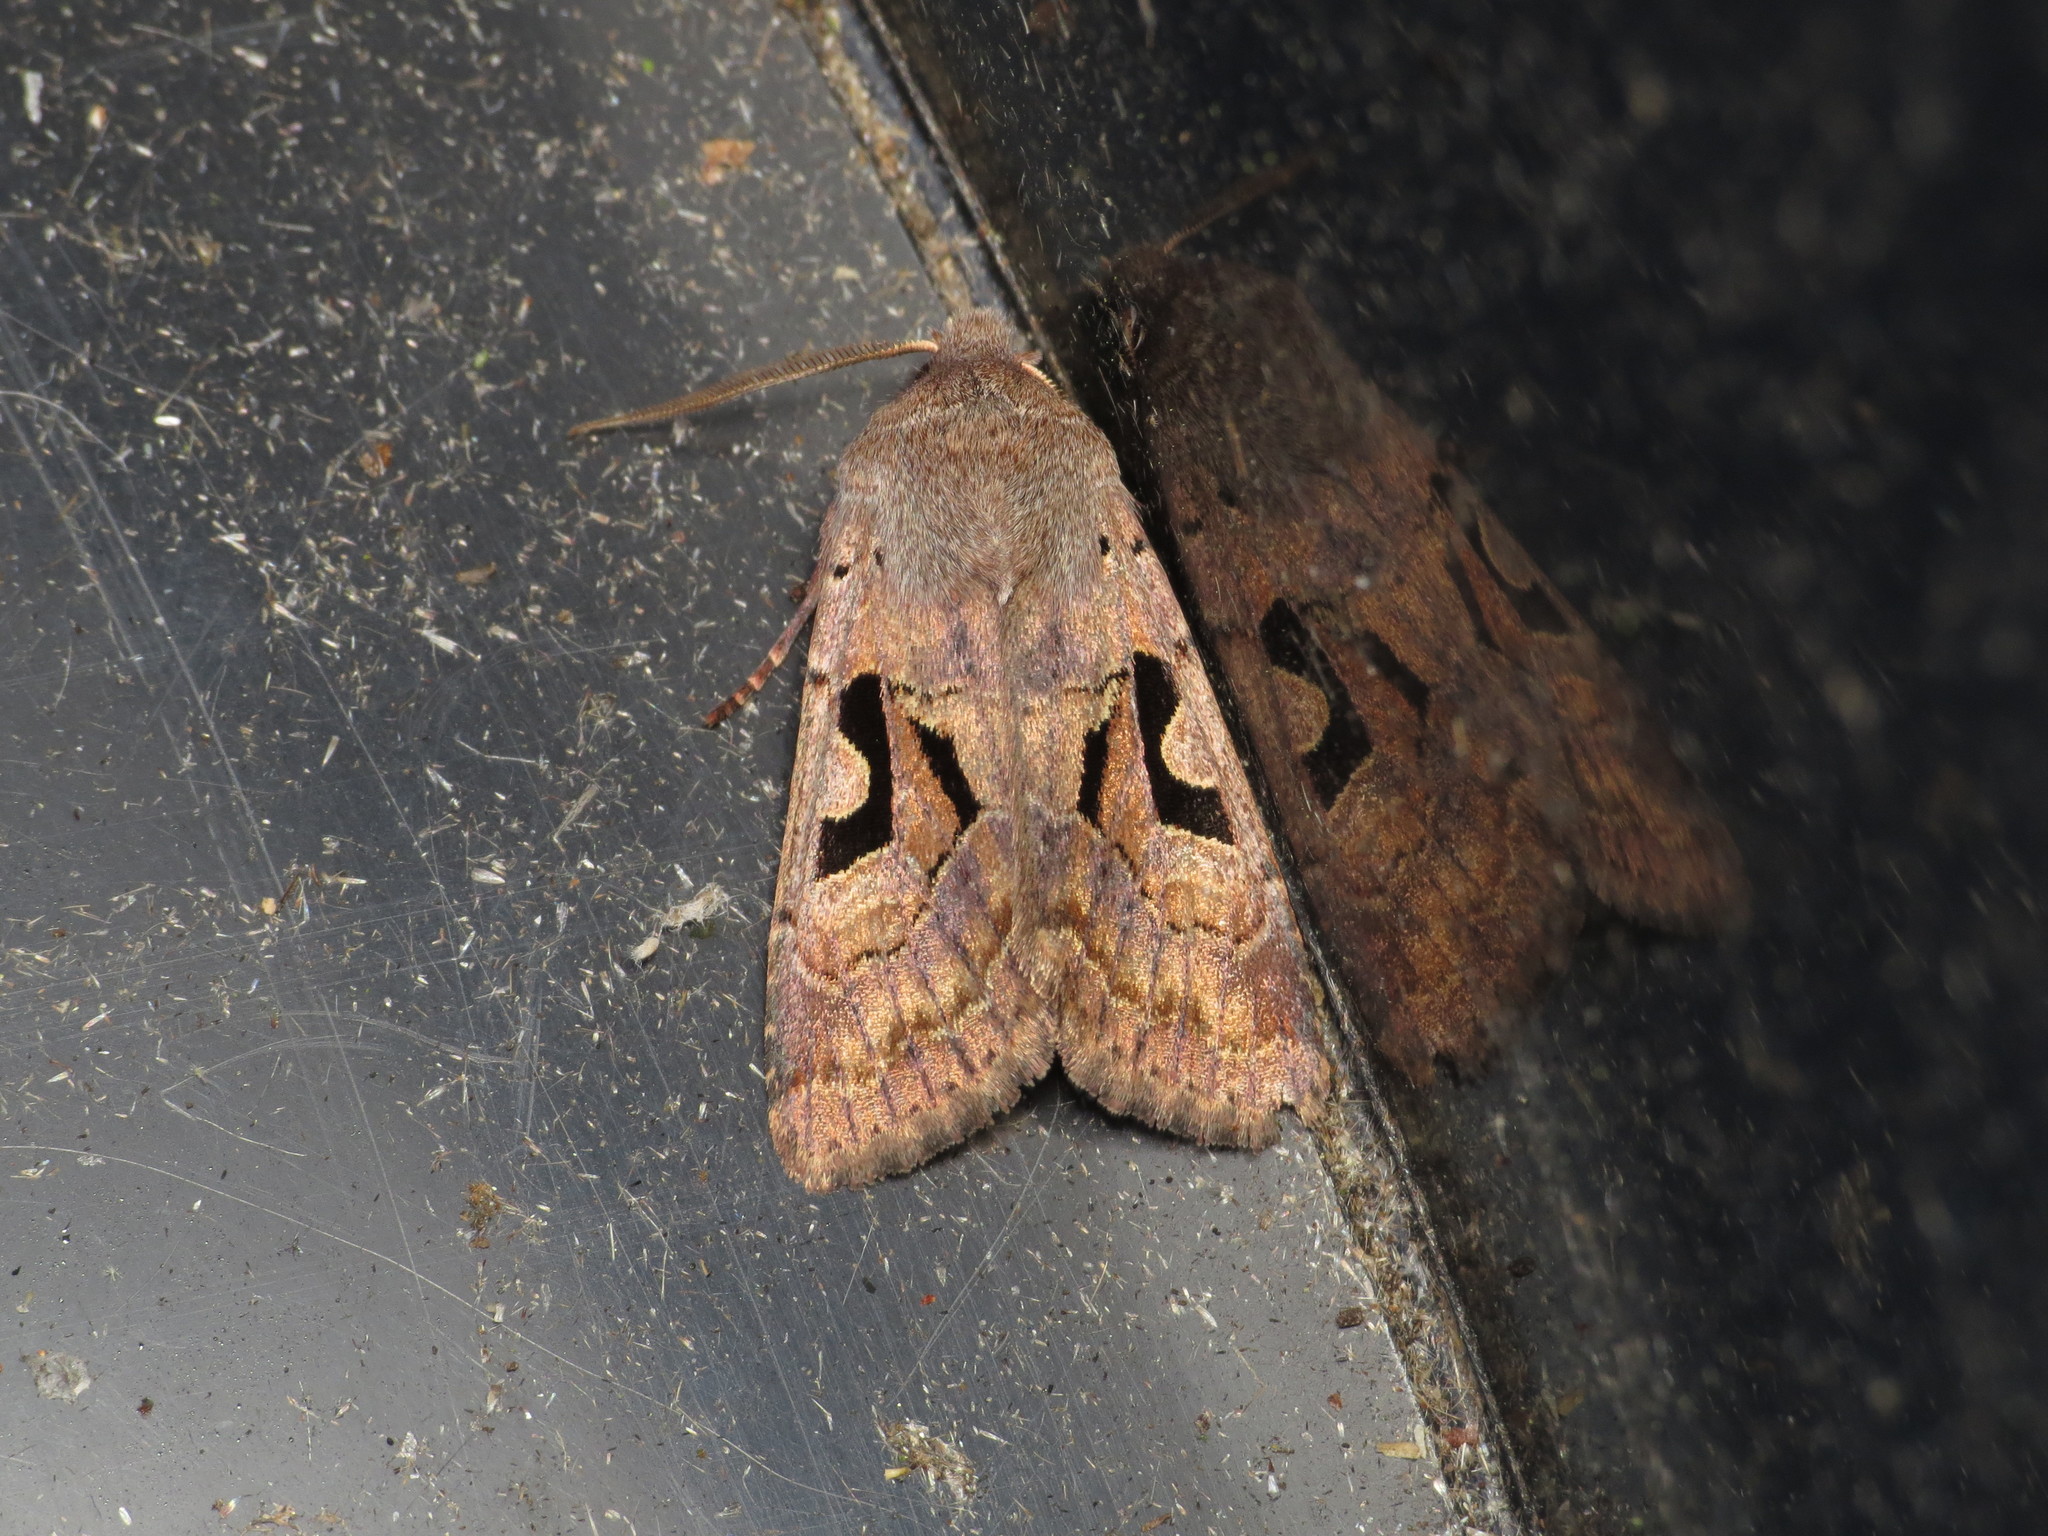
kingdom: Animalia
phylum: Arthropoda
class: Insecta
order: Lepidoptera
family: Noctuidae
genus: Orthosia
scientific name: Orthosia gothica
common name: Hebrew character
